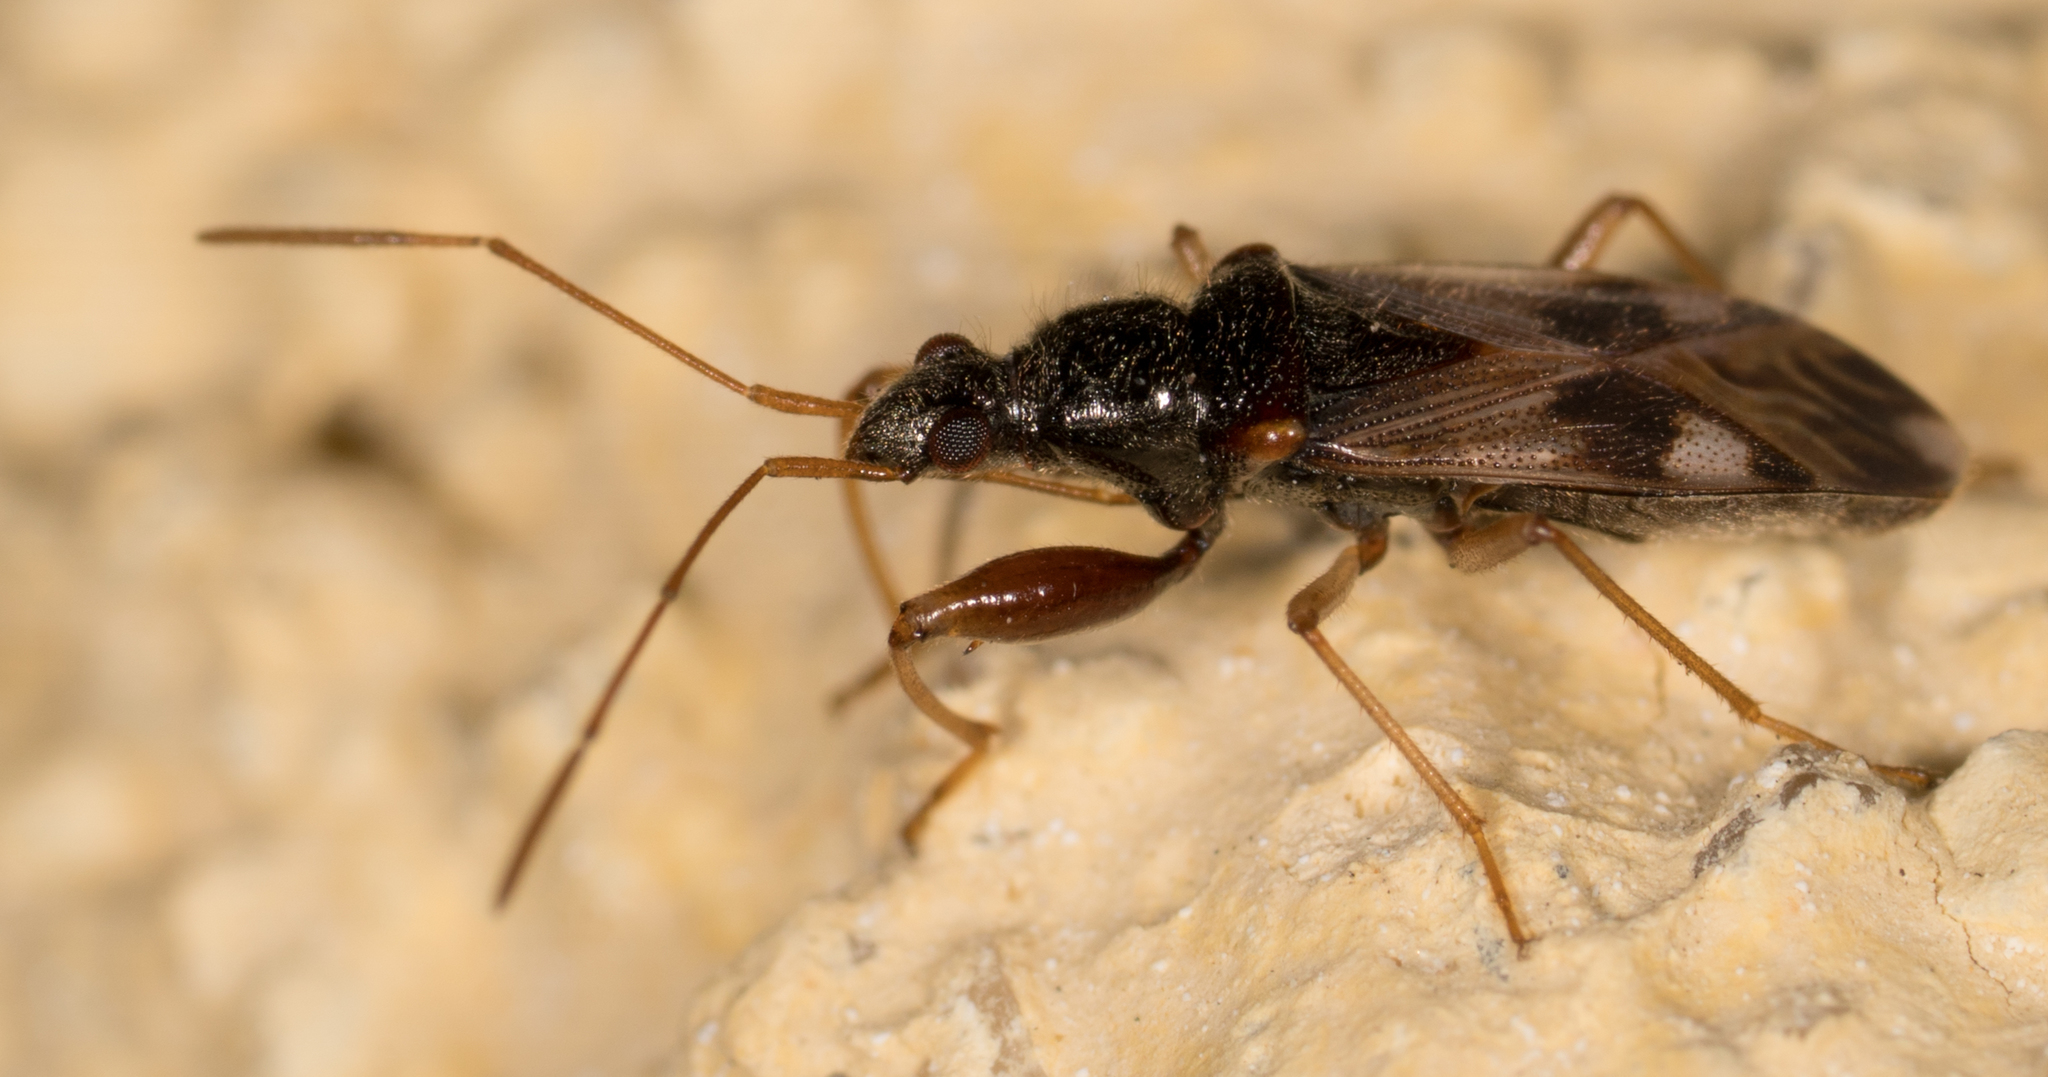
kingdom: Animalia
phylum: Arthropoda
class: Insecta
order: Hemiptera
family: Rhyparochromidae
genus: Pseudopamera
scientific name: Pseudopamera nitidula
